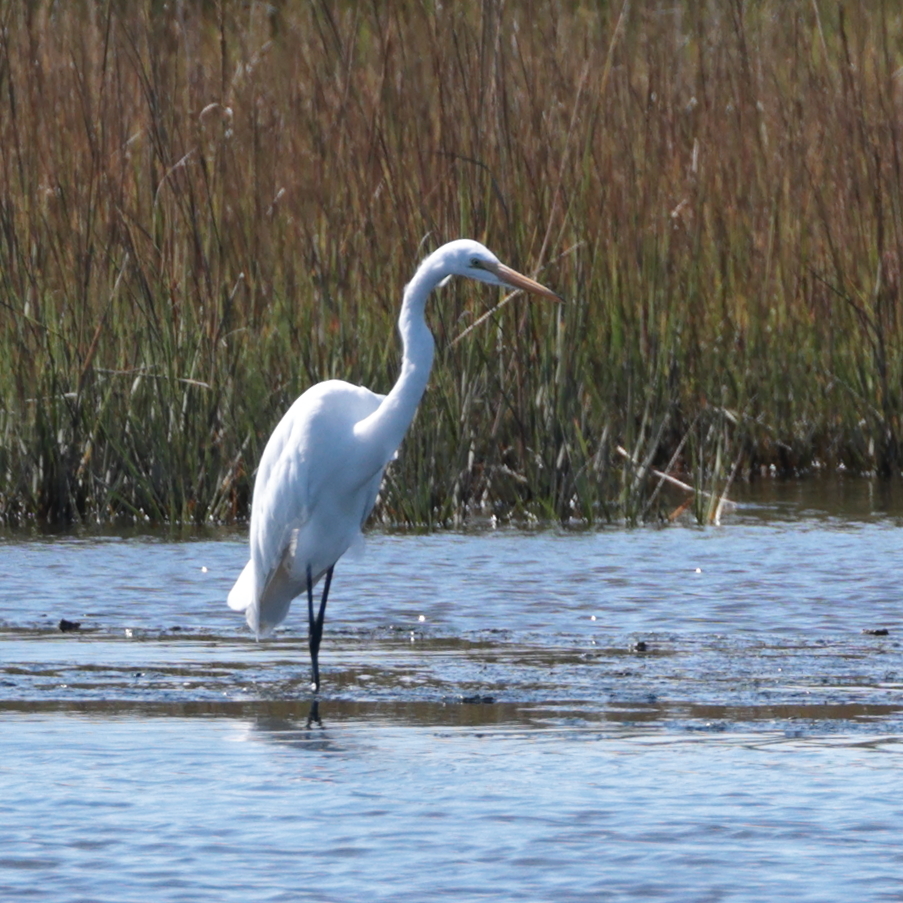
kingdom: Animalia
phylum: Chordata
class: Aves
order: Pelecaniformes
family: Ardeidae
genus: Ardea
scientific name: Ardea alba
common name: Great egret
